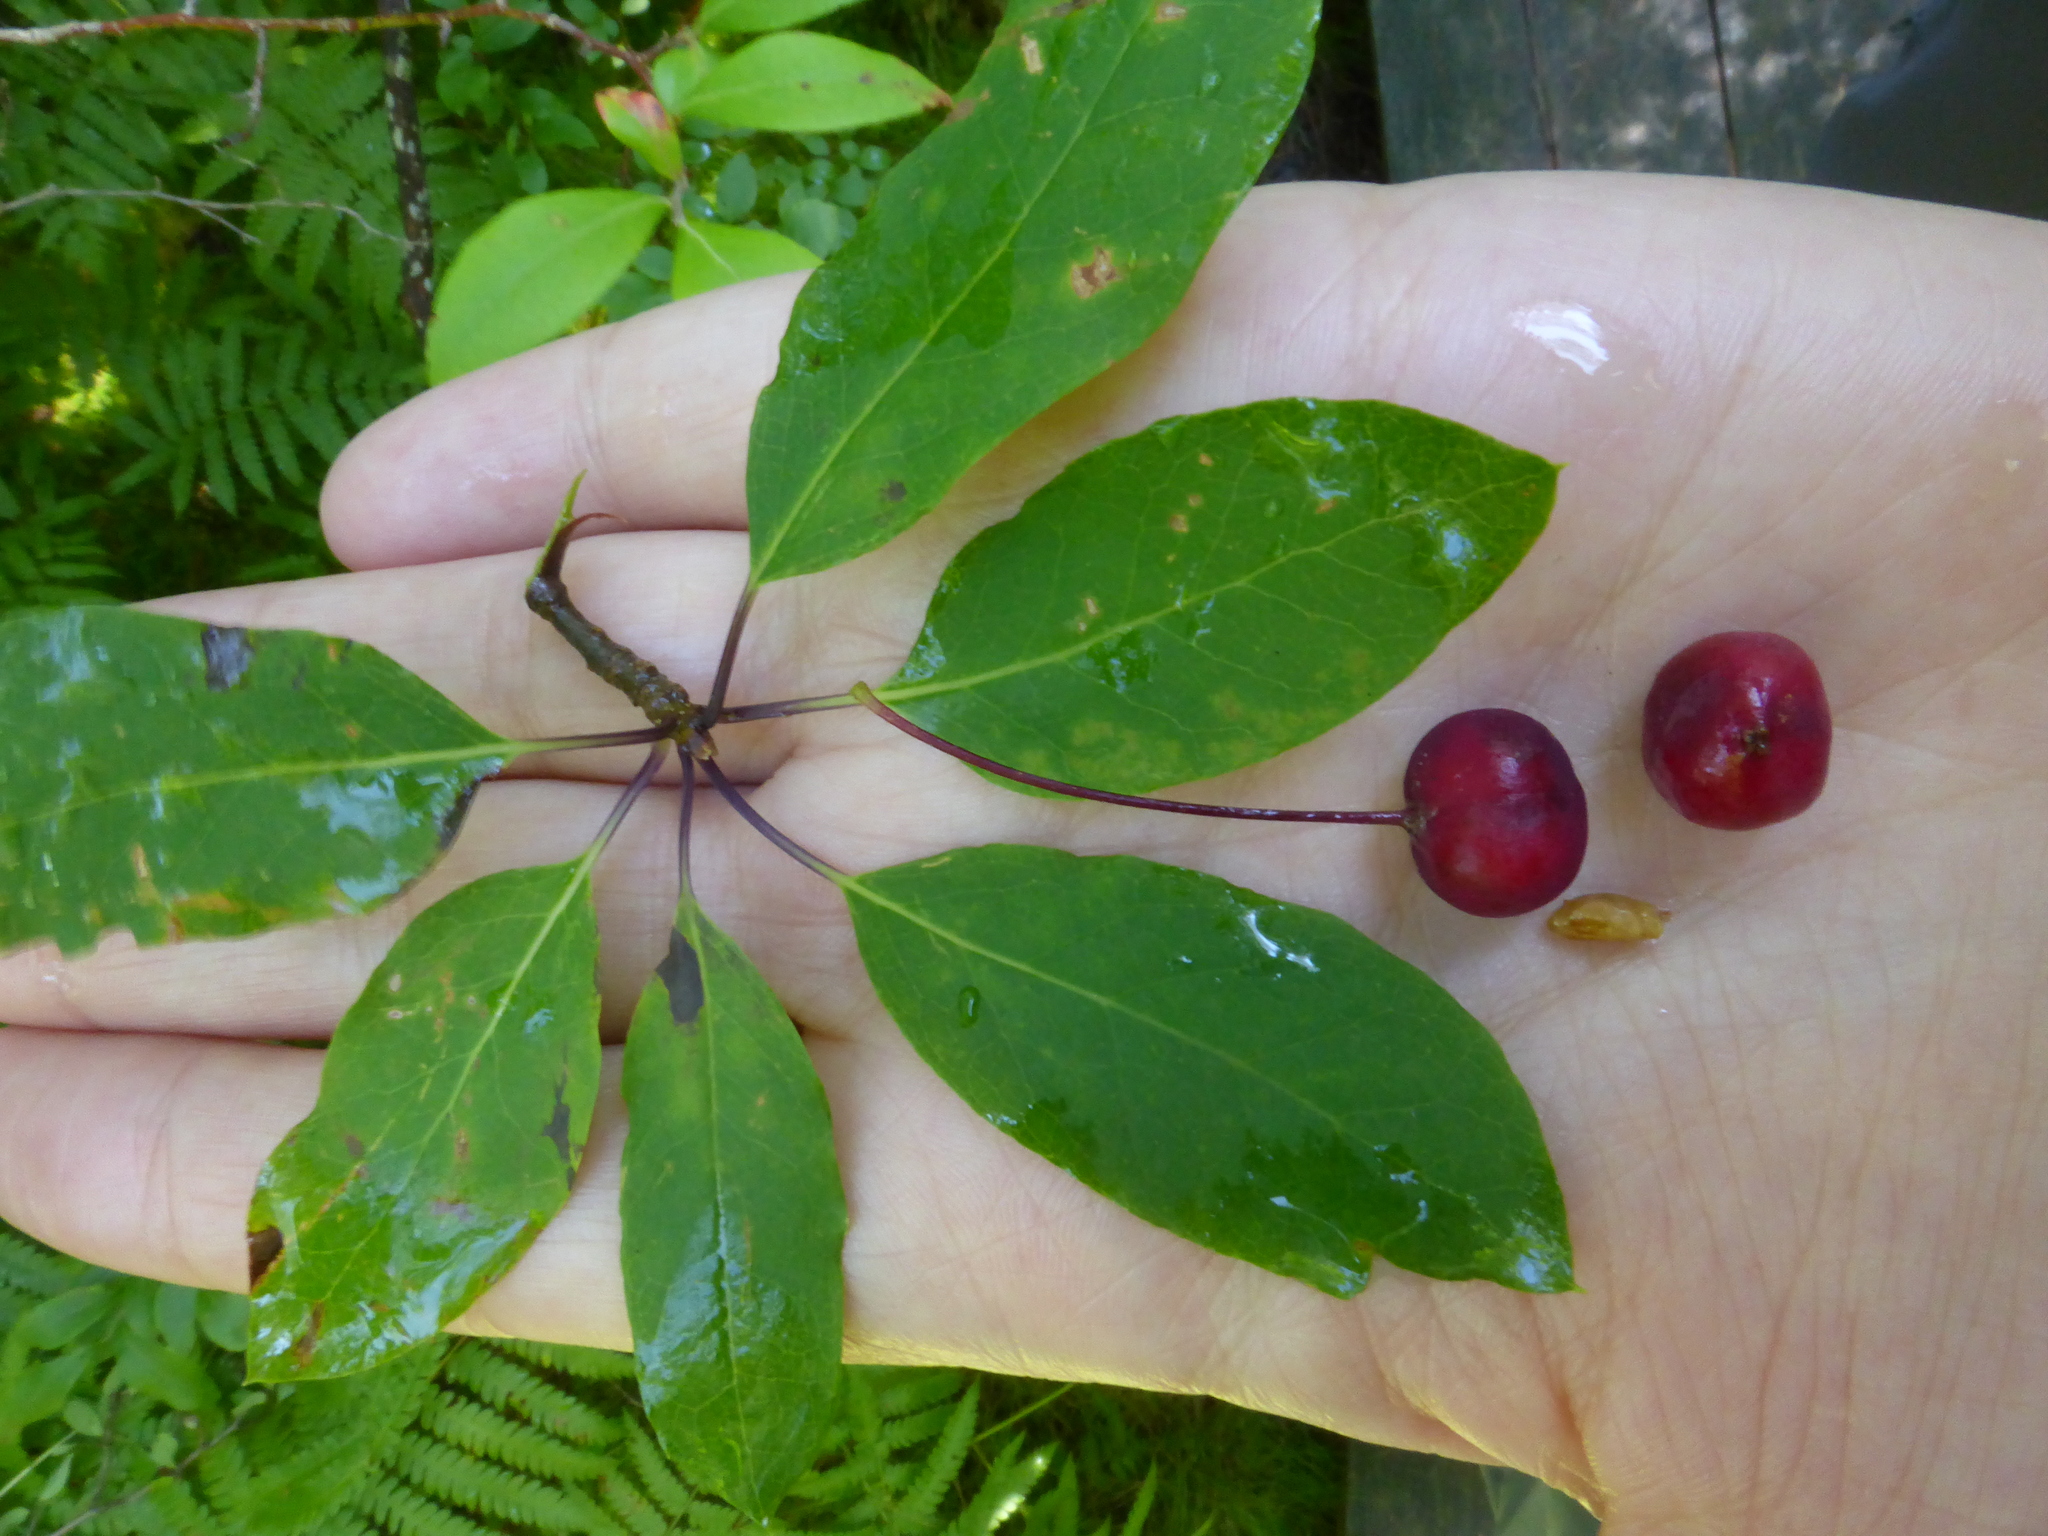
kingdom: Plantae
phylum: Tracheophyta
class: Magnoliopsida
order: Aquifoliales
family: Aquifoliaceae
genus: Ilex
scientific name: Ilex mucronata
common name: Catberry
